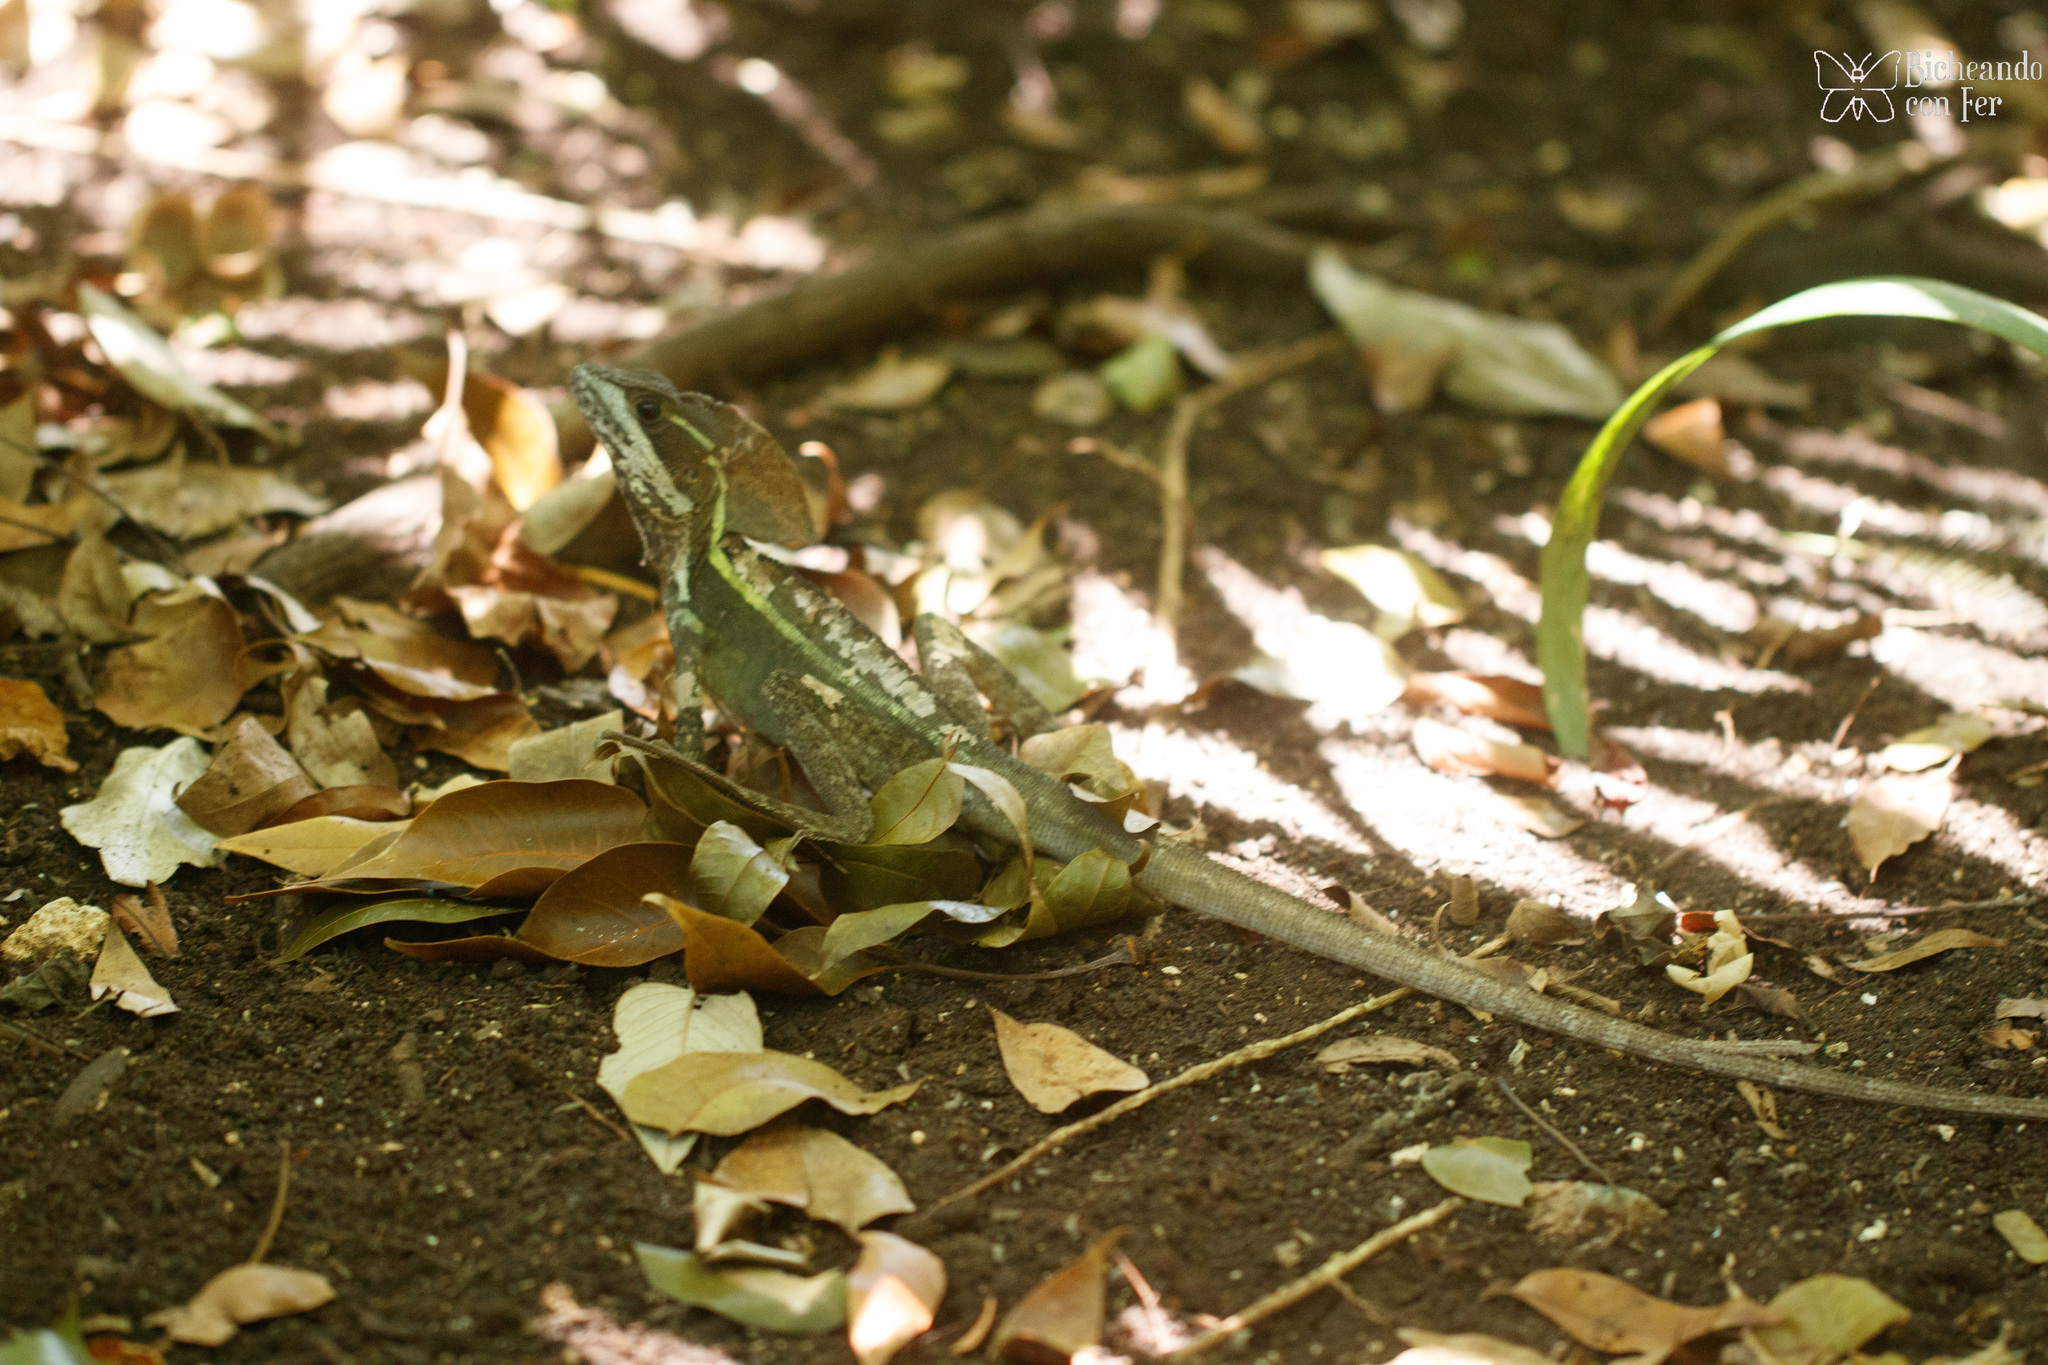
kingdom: Animalia
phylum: Chordata
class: Squamata
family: Corytophanidae
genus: Basiliscus
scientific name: Basiliscus vittatus
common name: Brown basilisk
